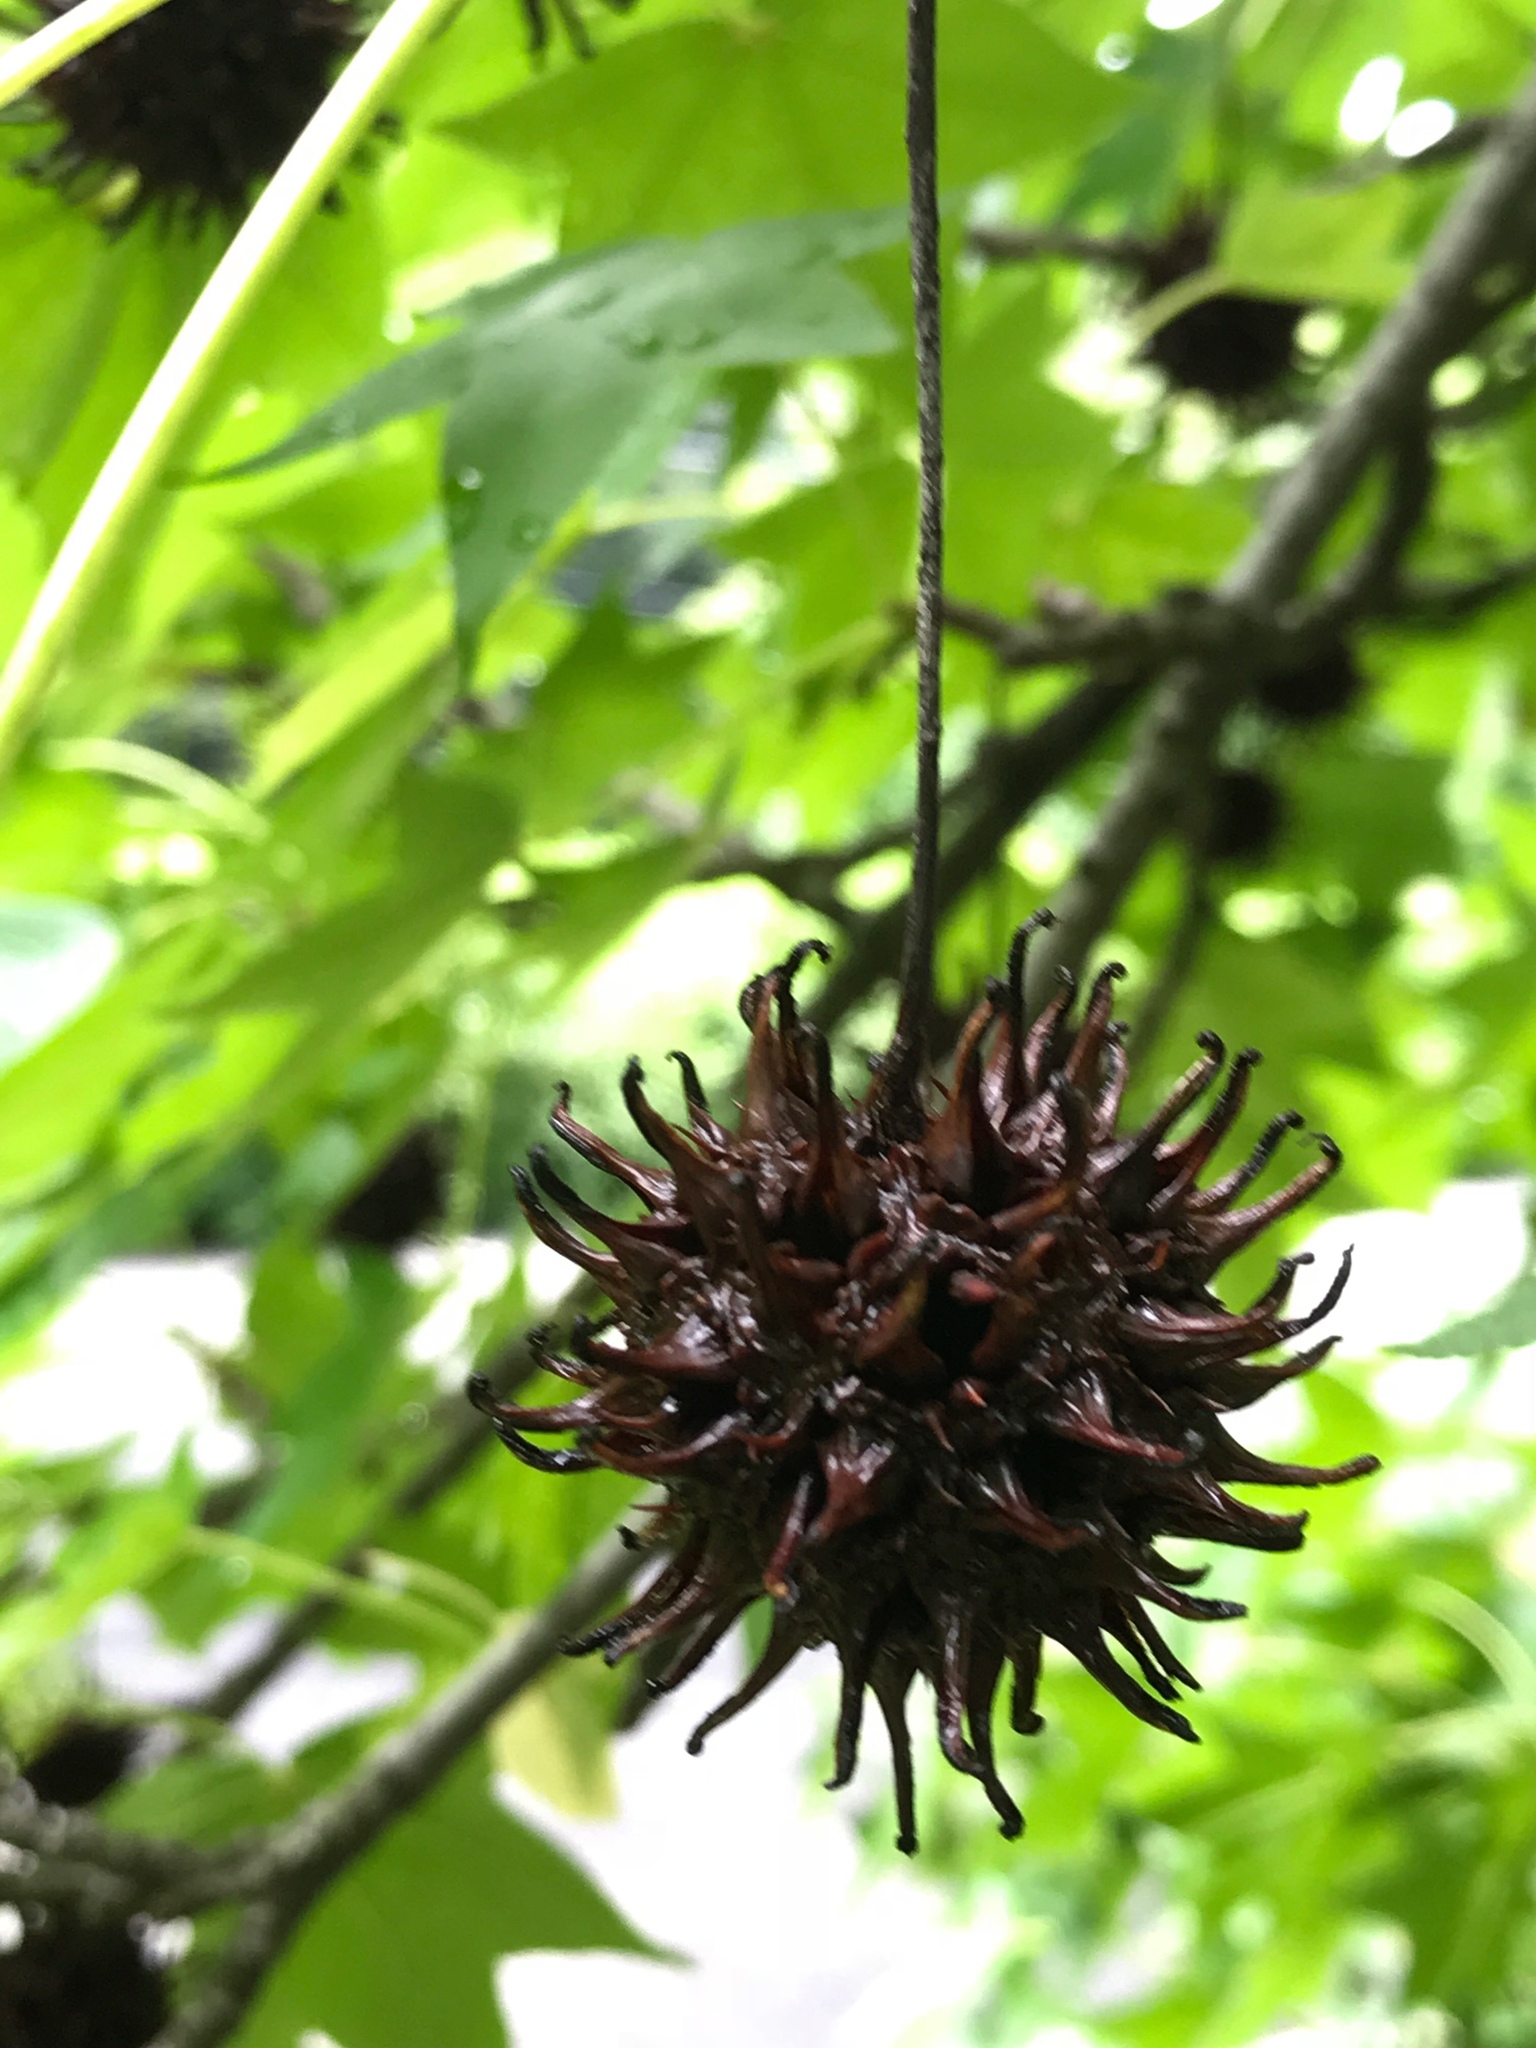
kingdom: Plantae
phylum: Tracheophyta
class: Magnoliopsida
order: Saxifragales
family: Altingiaceae
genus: Liquidambar
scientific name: Liquidambar styraciflua
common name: Sweet gum
